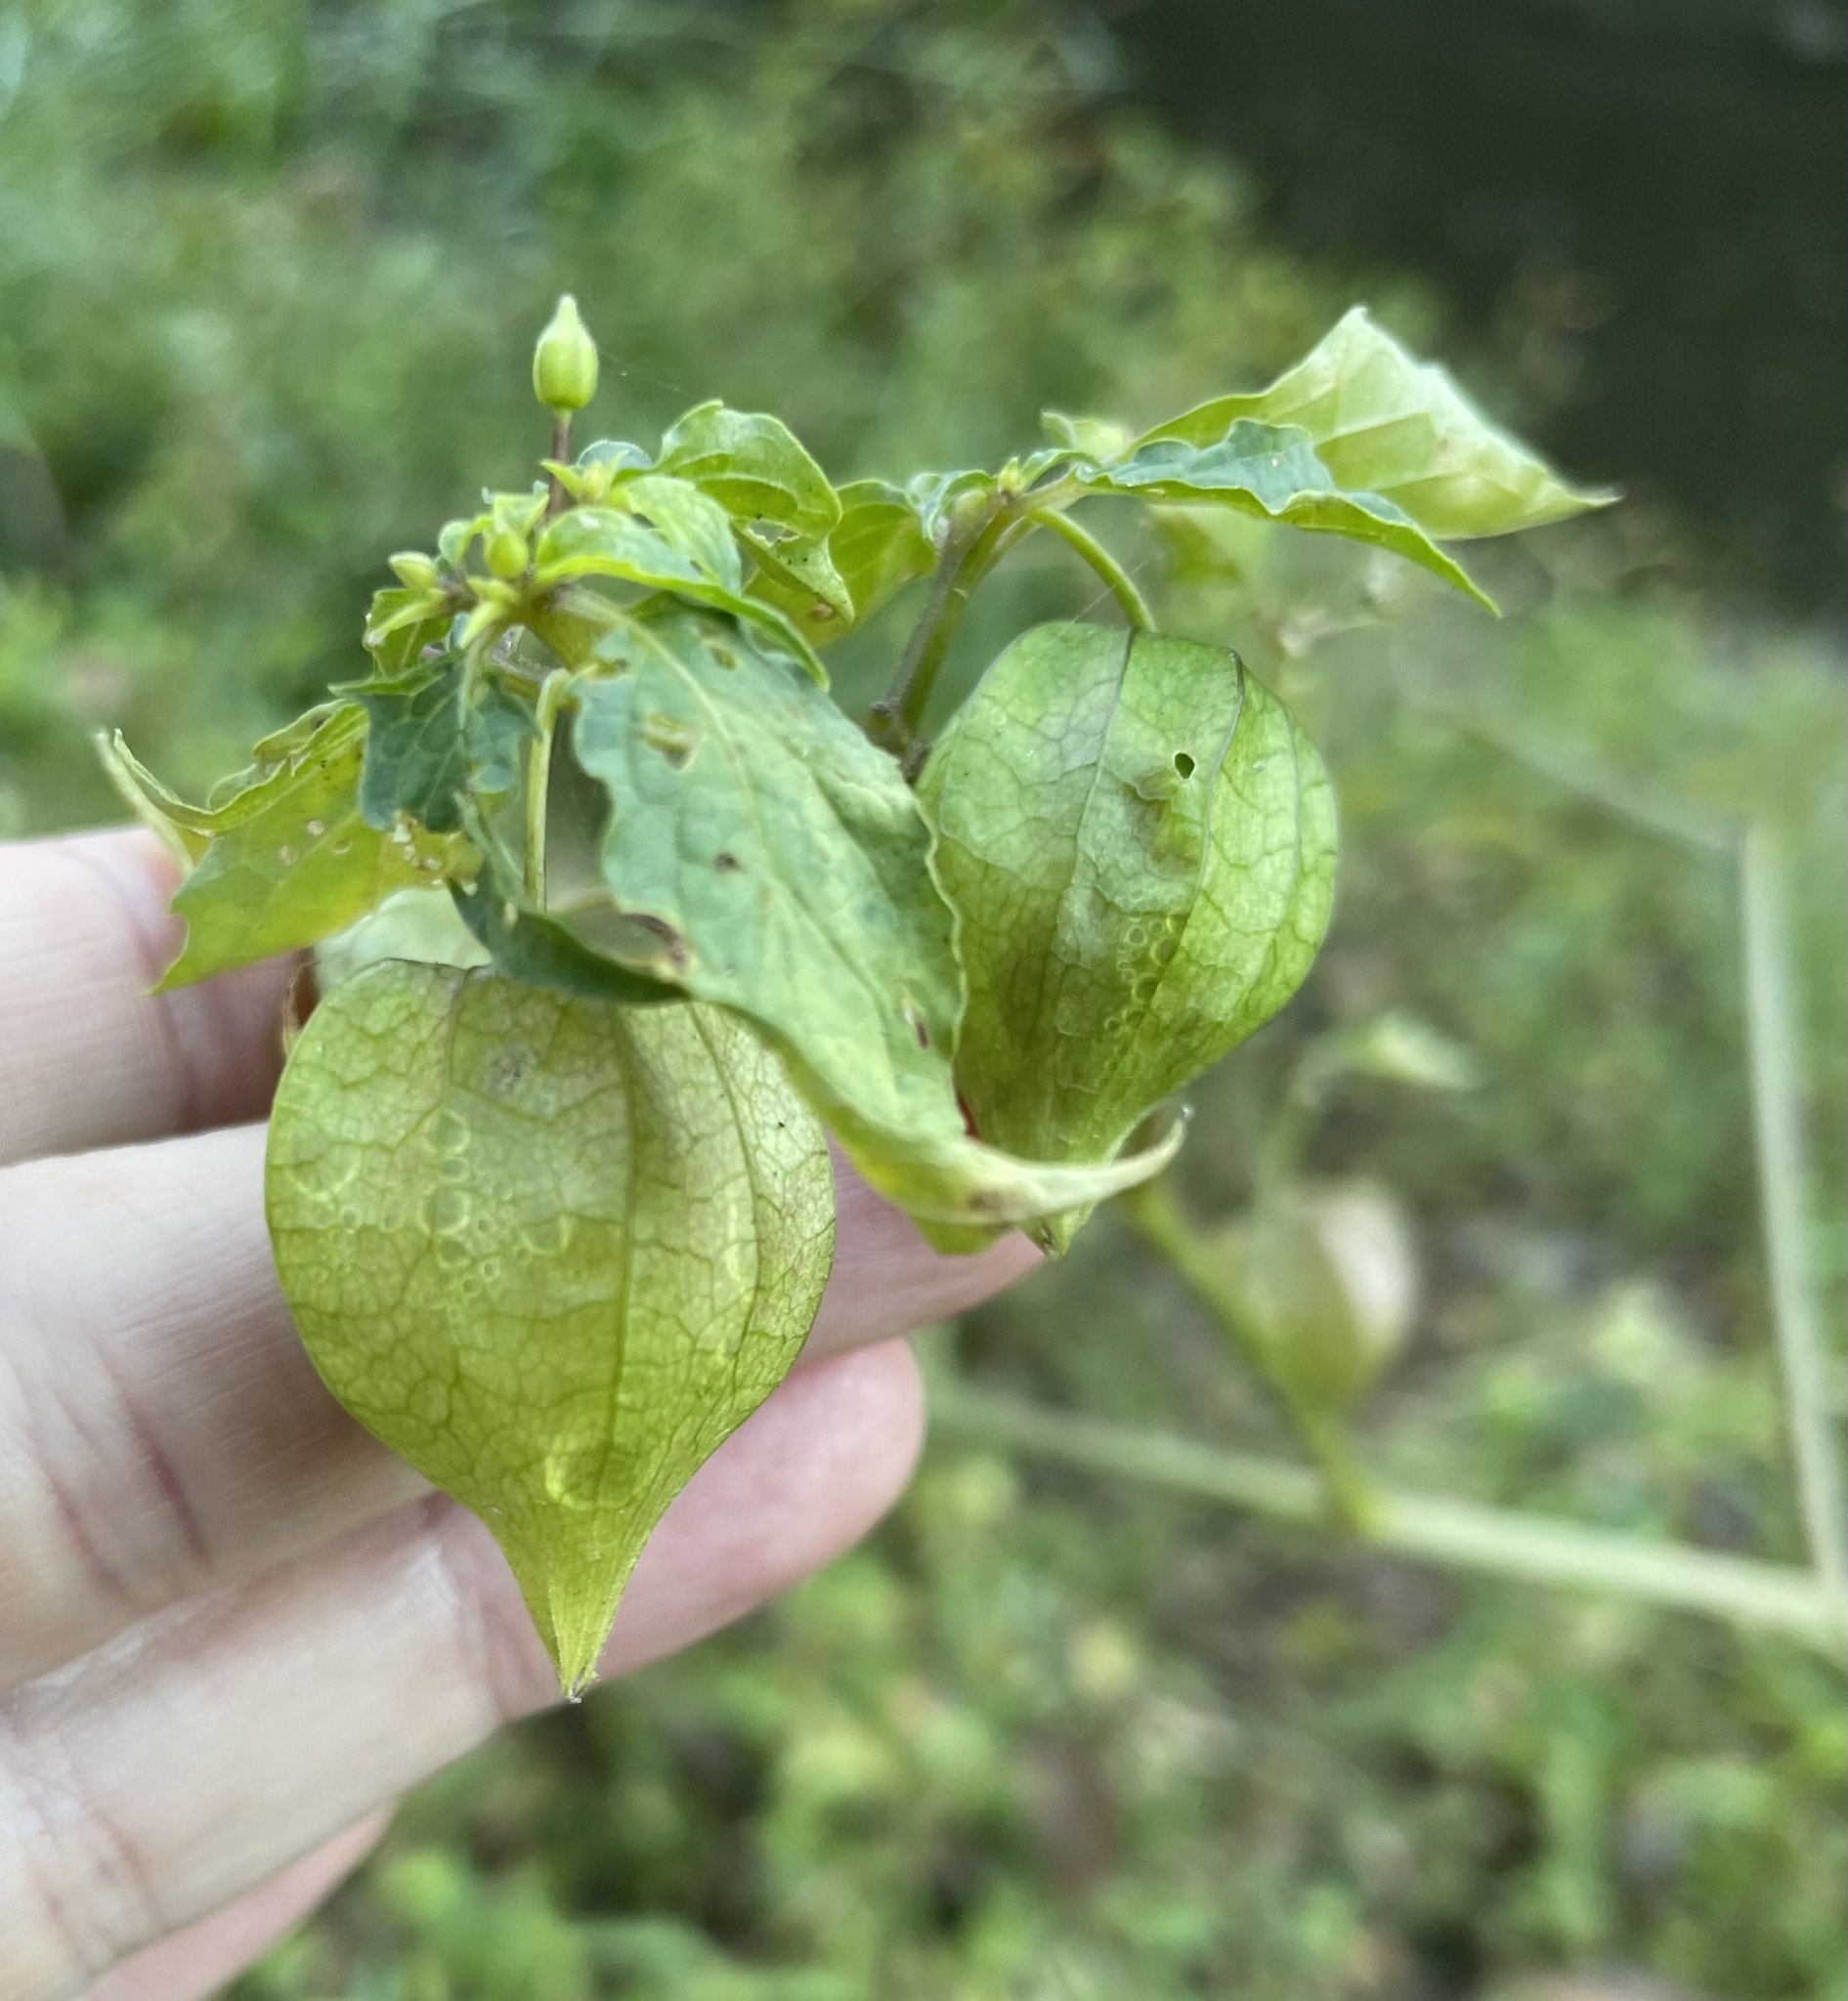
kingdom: Plantae
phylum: Tracheophyta
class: Magnoliopsida
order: Solanales
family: Solanaceae
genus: Physalis
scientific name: Physalis angulata
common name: Angular winter-cherry
